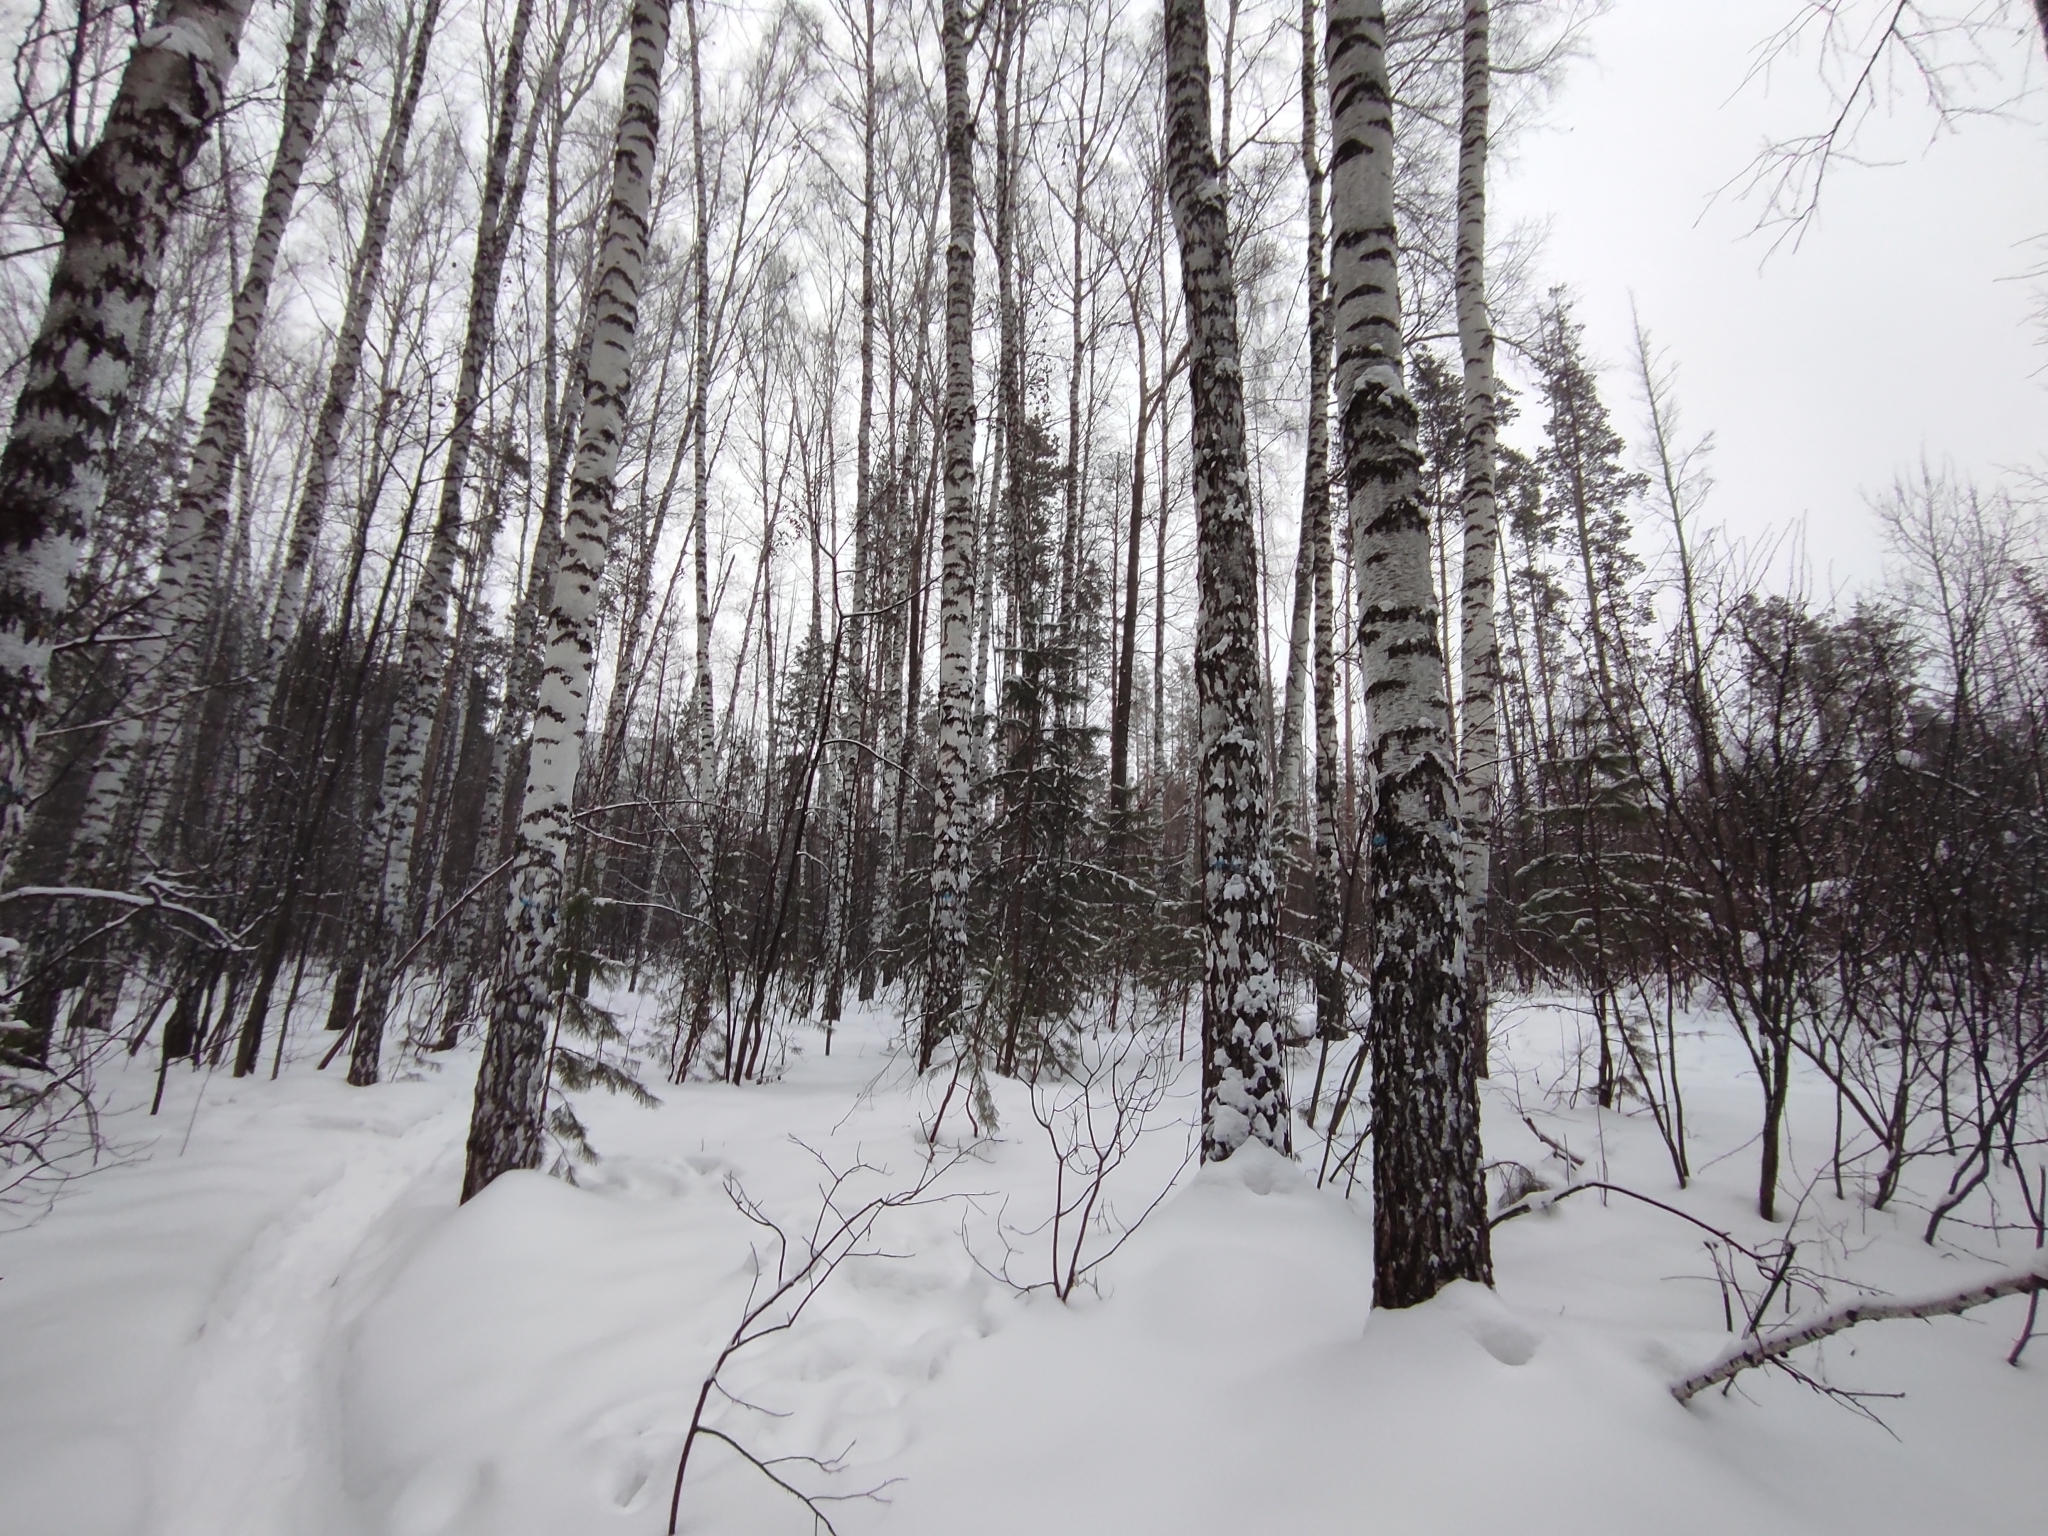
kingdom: Plantae
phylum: Tracheophyta
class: Magnoliopsida
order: Fagales
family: Betulaceae
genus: Betula
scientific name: Betula pendula
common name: Silver birch
